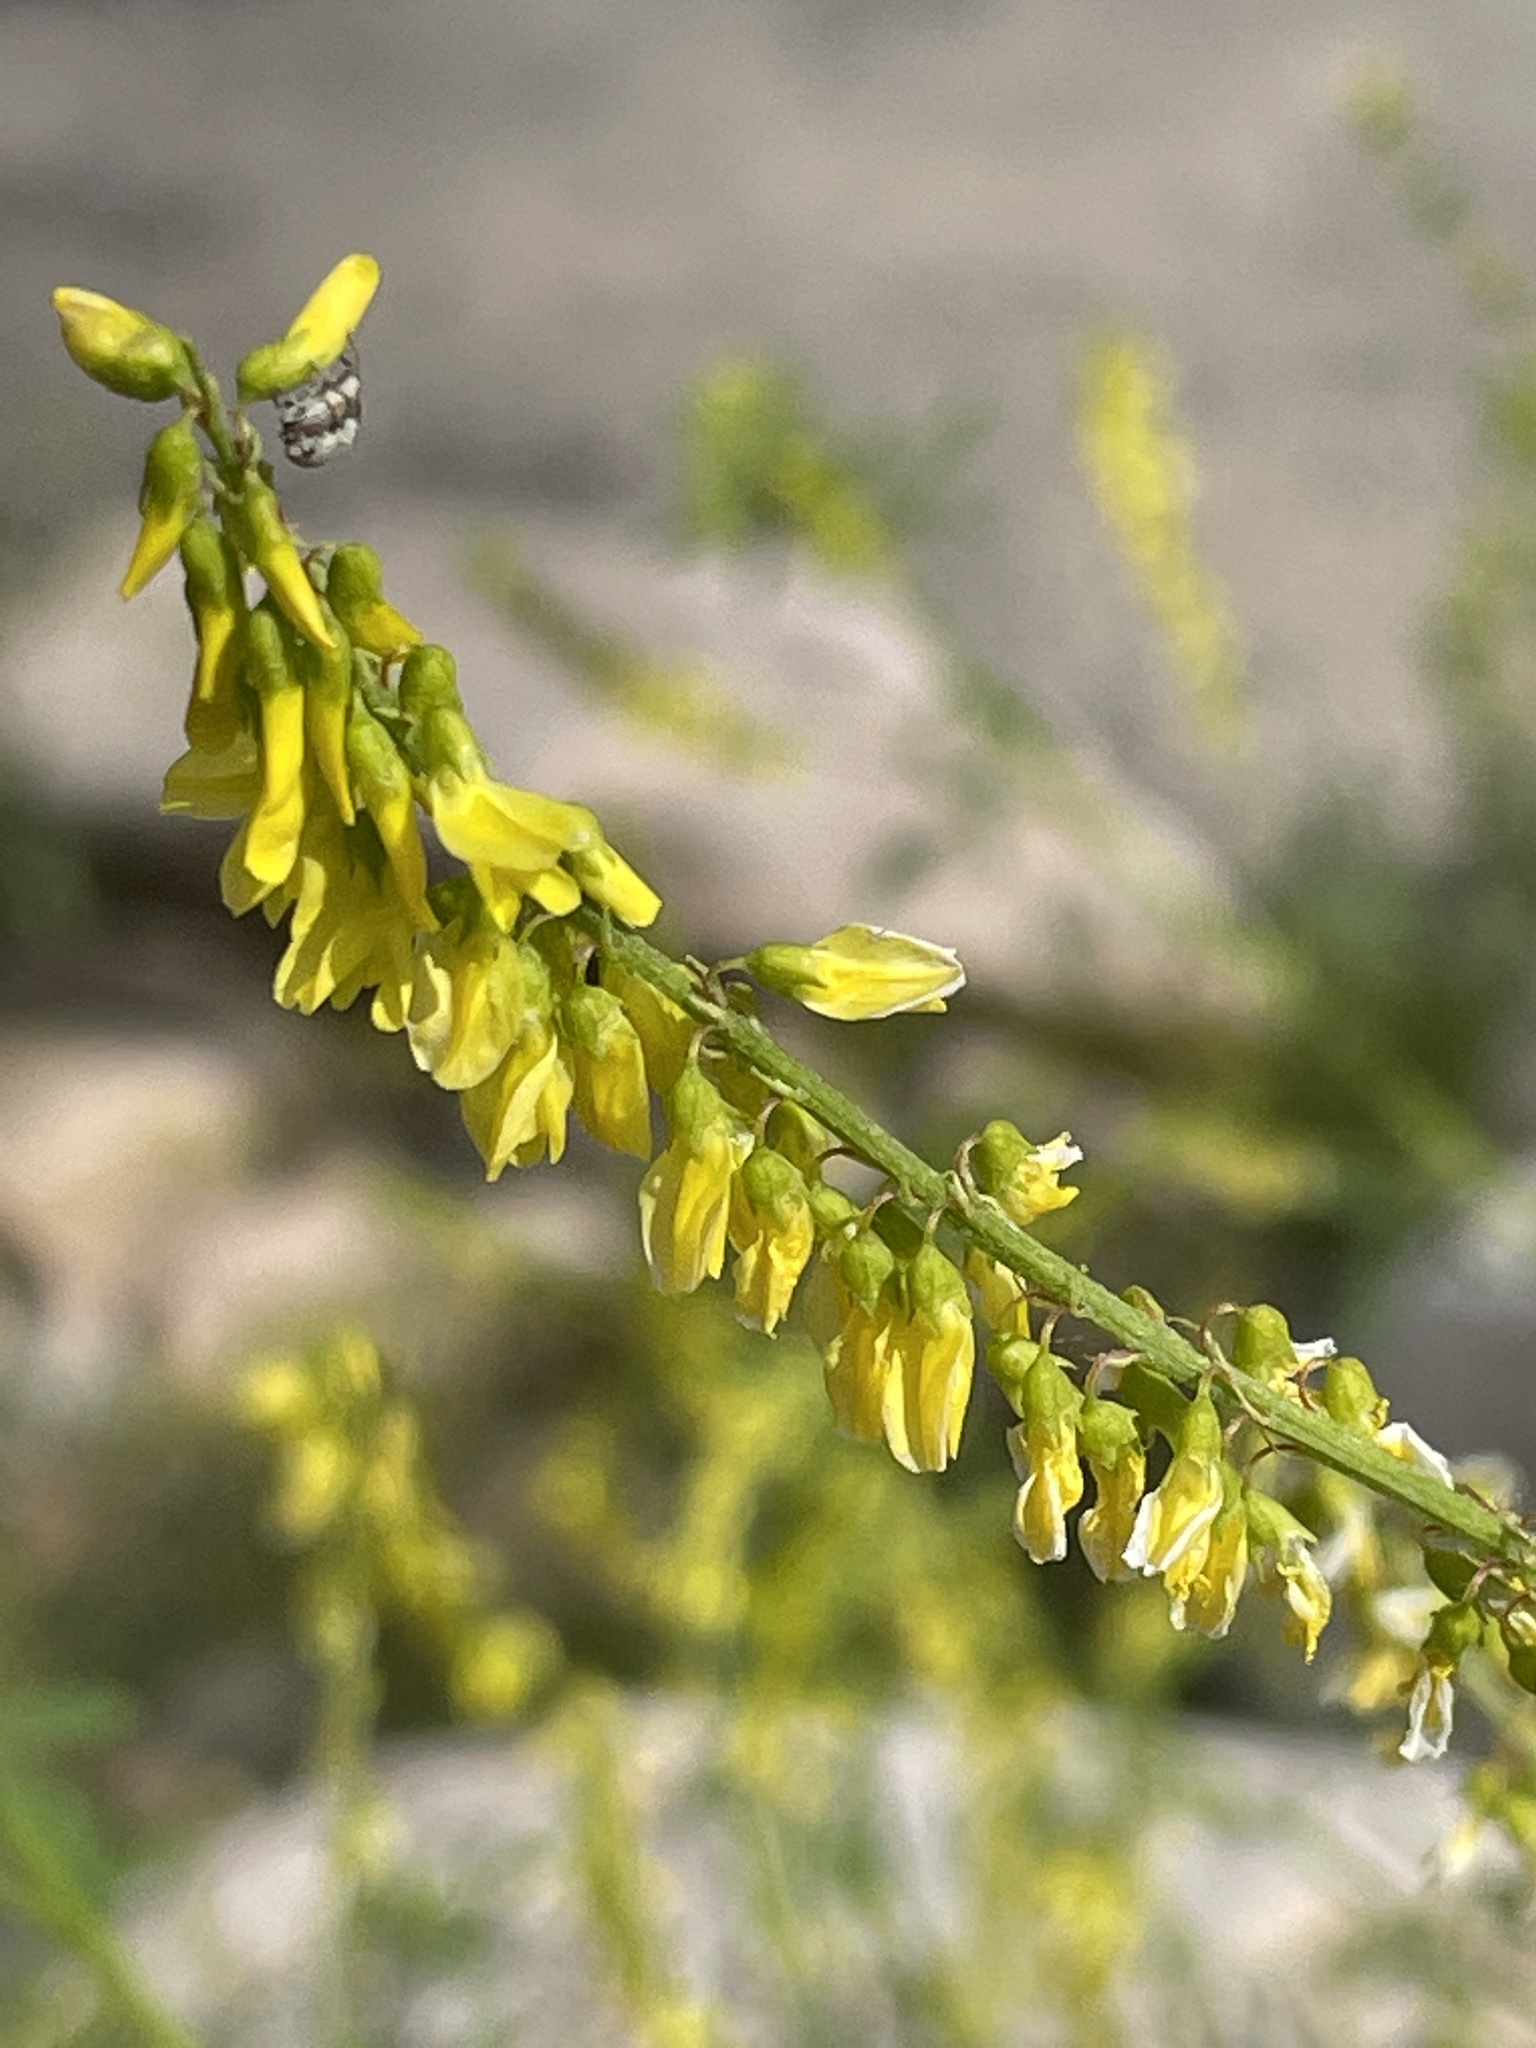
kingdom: Plantae
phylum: Tracheophyta
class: Magnoliopsida
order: Fabales
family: Fabaceae
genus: Melilotus
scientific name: Melilotus officinalis
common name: Sweetclover
